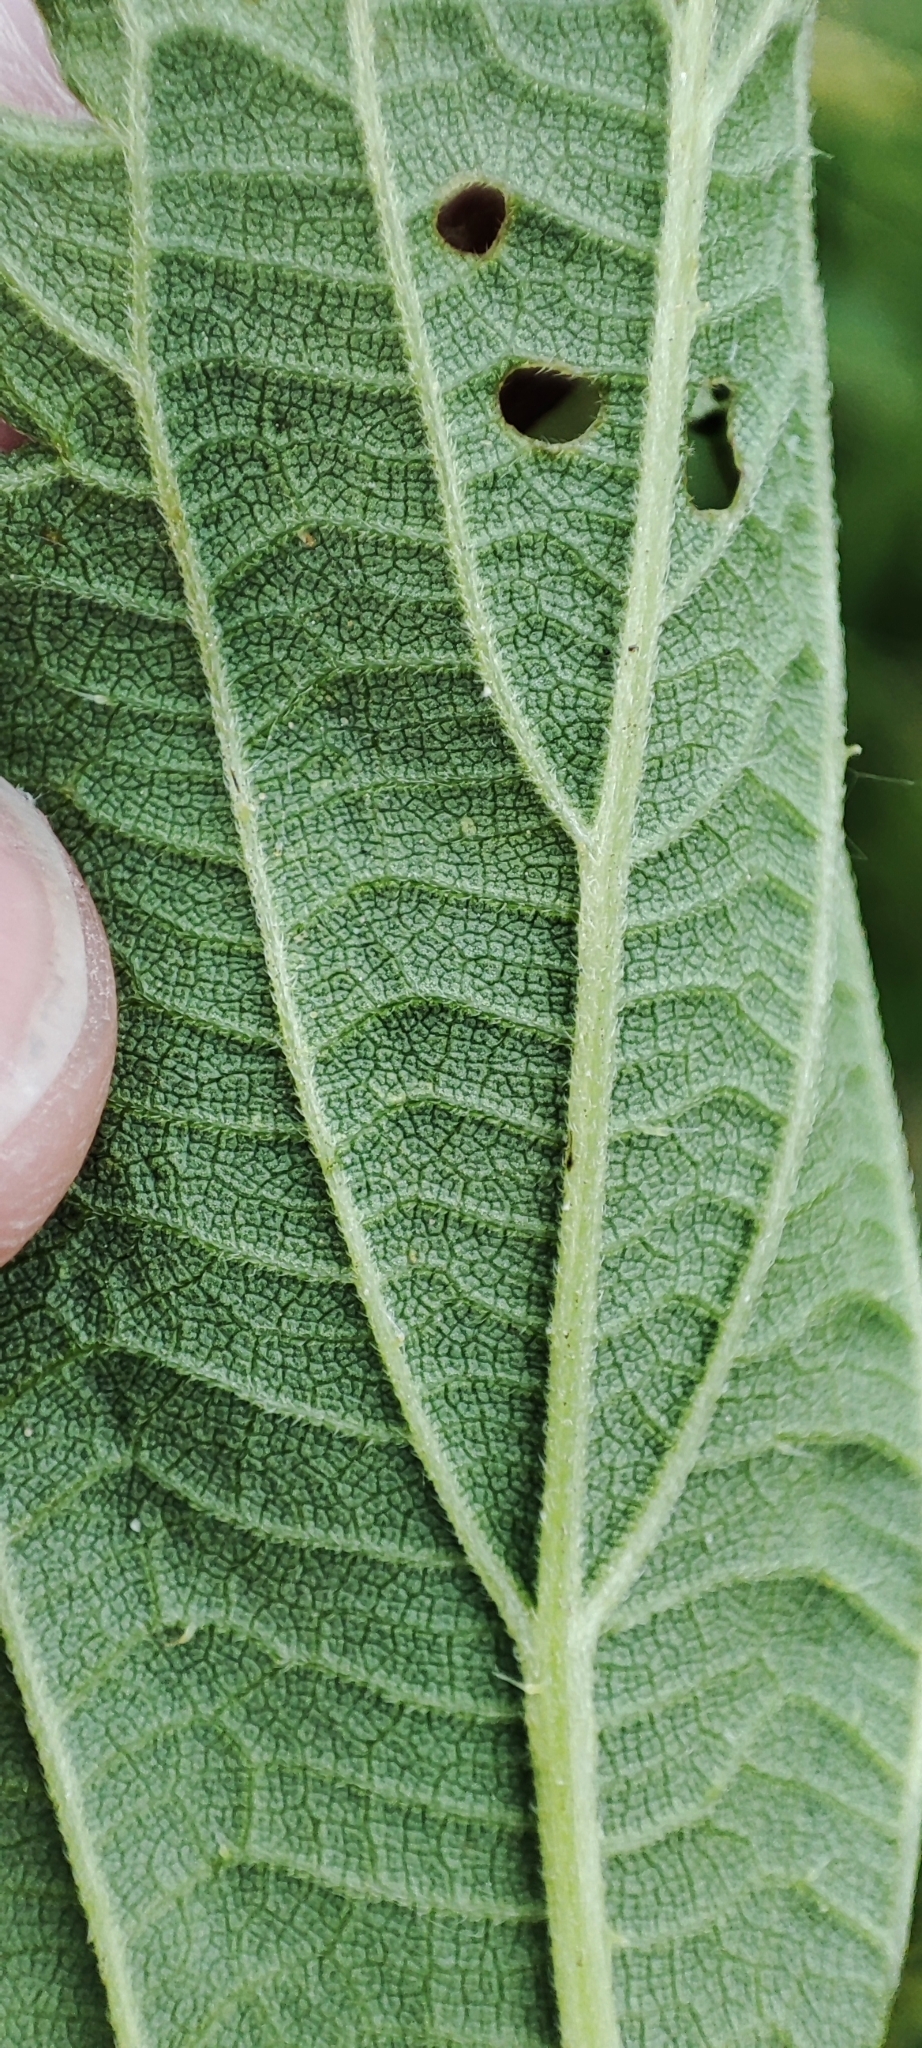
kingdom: Plantae
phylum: Tracheophyta
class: Magnoliopsida
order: Rosales
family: Urticaceae
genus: Urtica
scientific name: Urtica galeopsifolia
